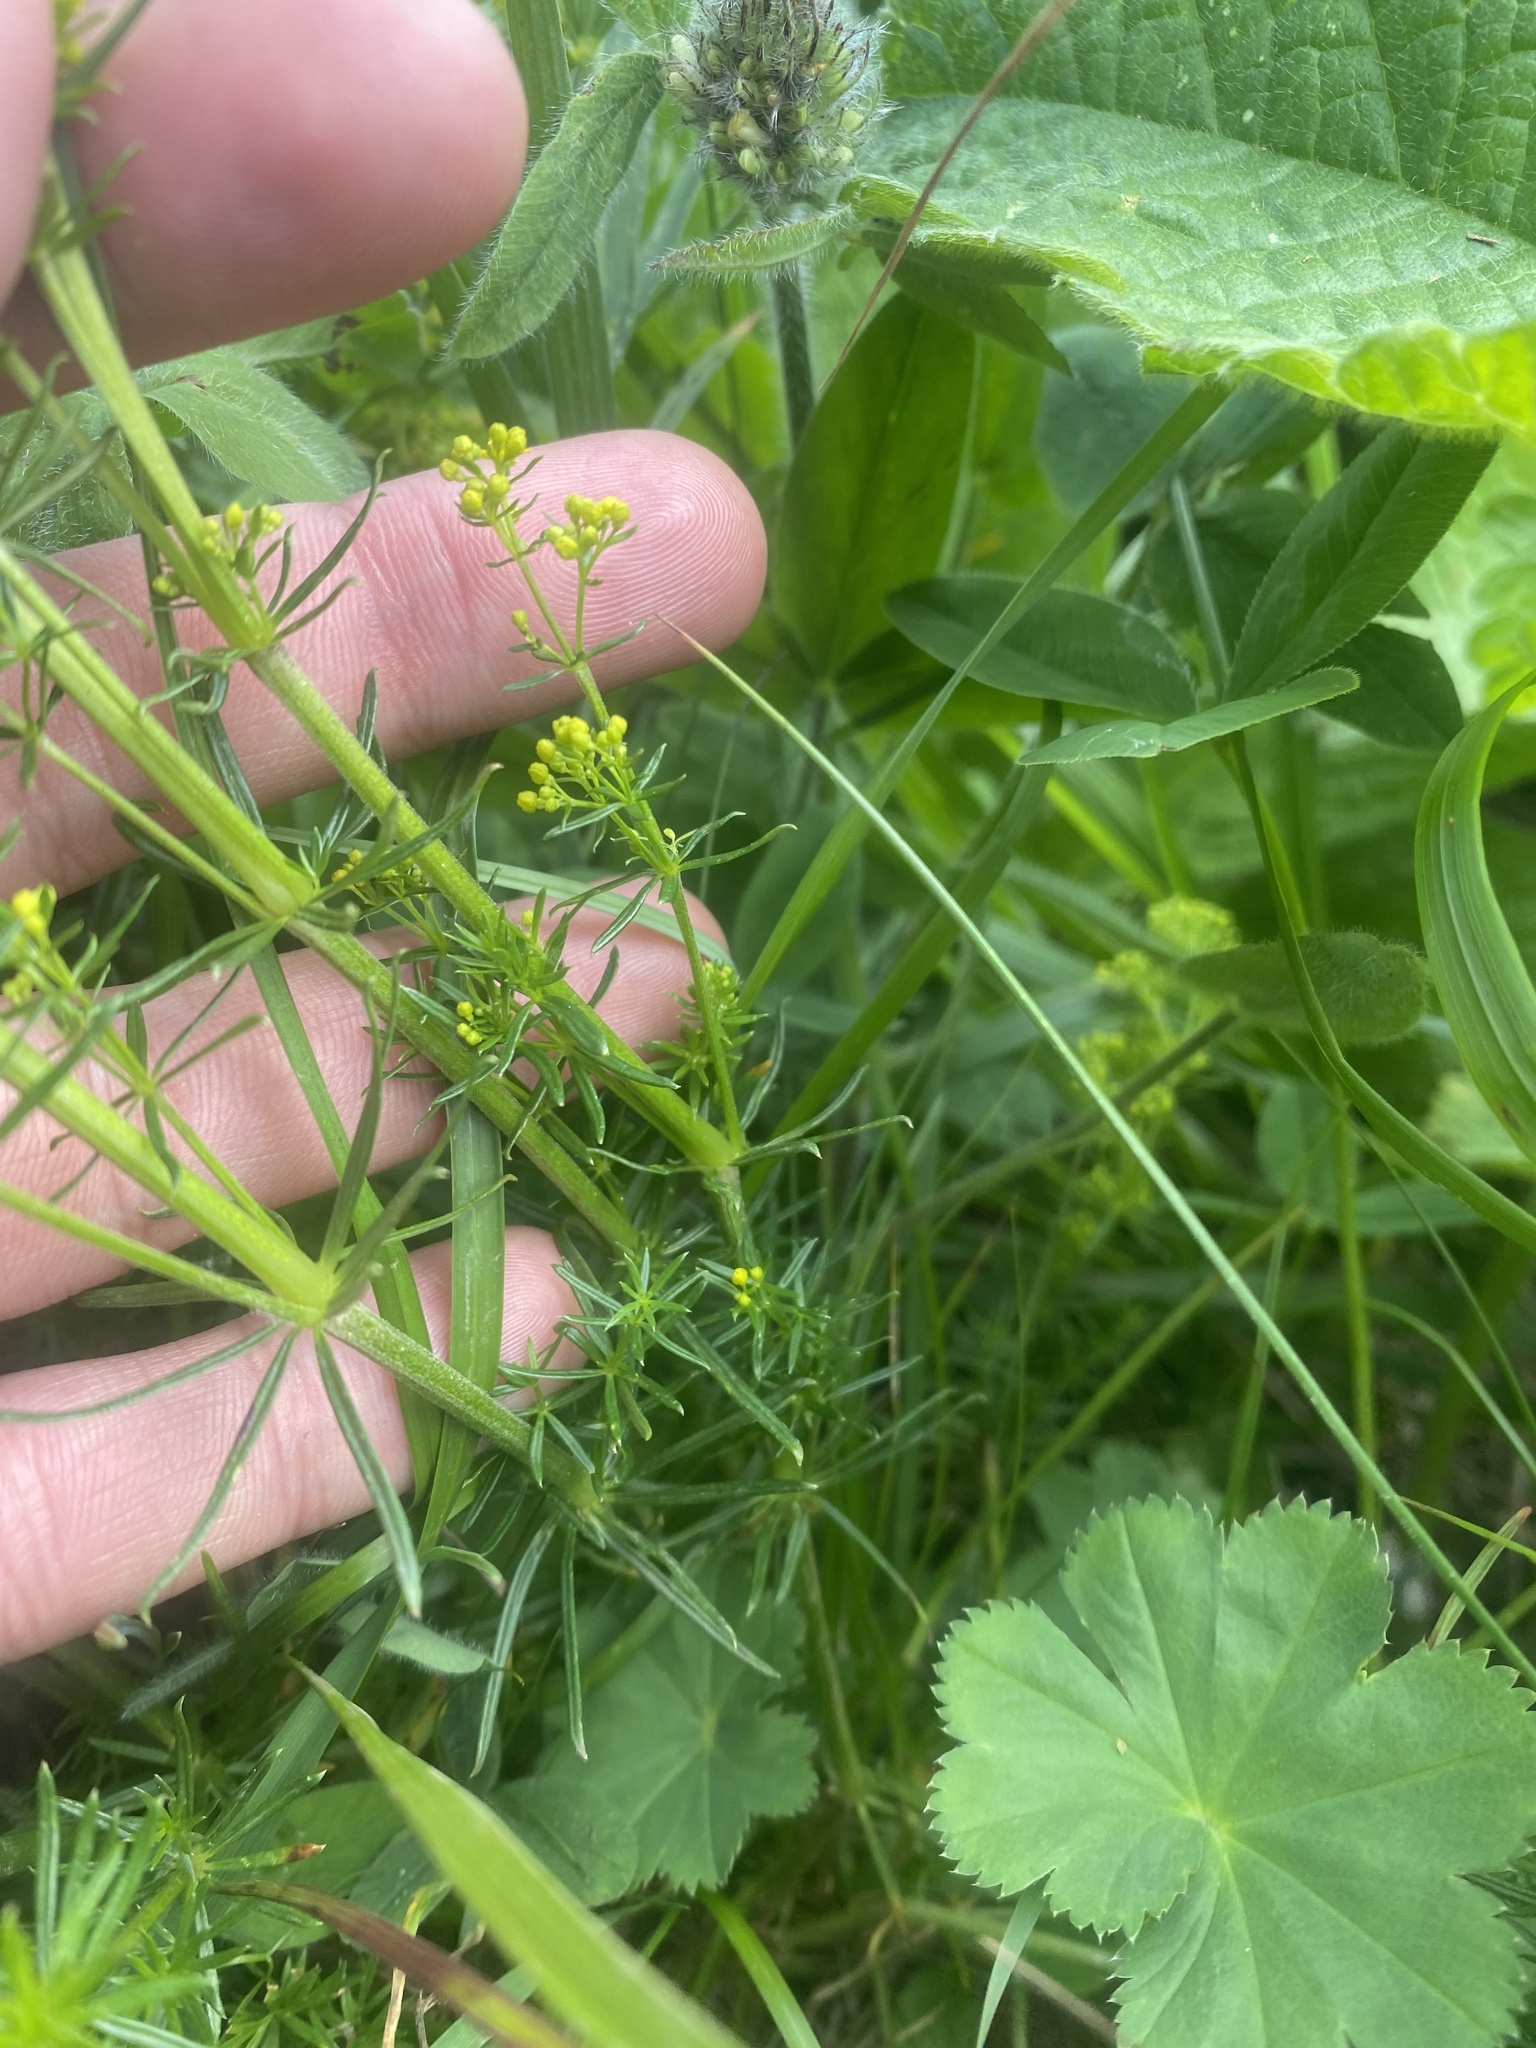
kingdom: Plantae
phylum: Tracheophyta
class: Magnoliopsida
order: Gentianales
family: Rubiaceae
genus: Galium
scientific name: Galium verum
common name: Lady's bedstraw
